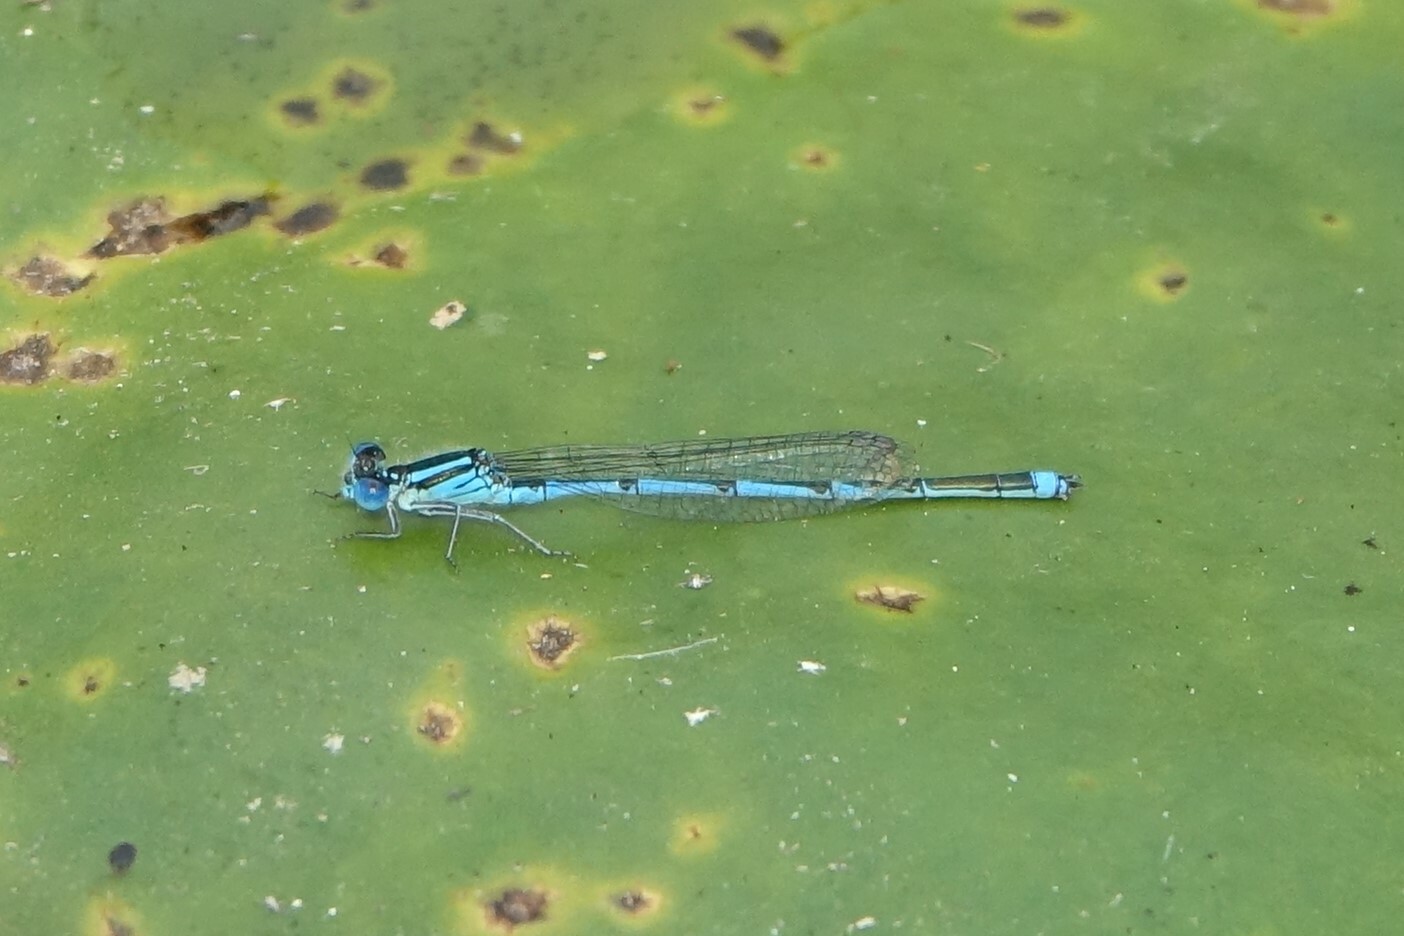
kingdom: Animalia
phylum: Arthropoda
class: Insecta
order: Odonata
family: Coenagrionidae
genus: Erythromma
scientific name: Erythromma lindenii
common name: Blue-eye
